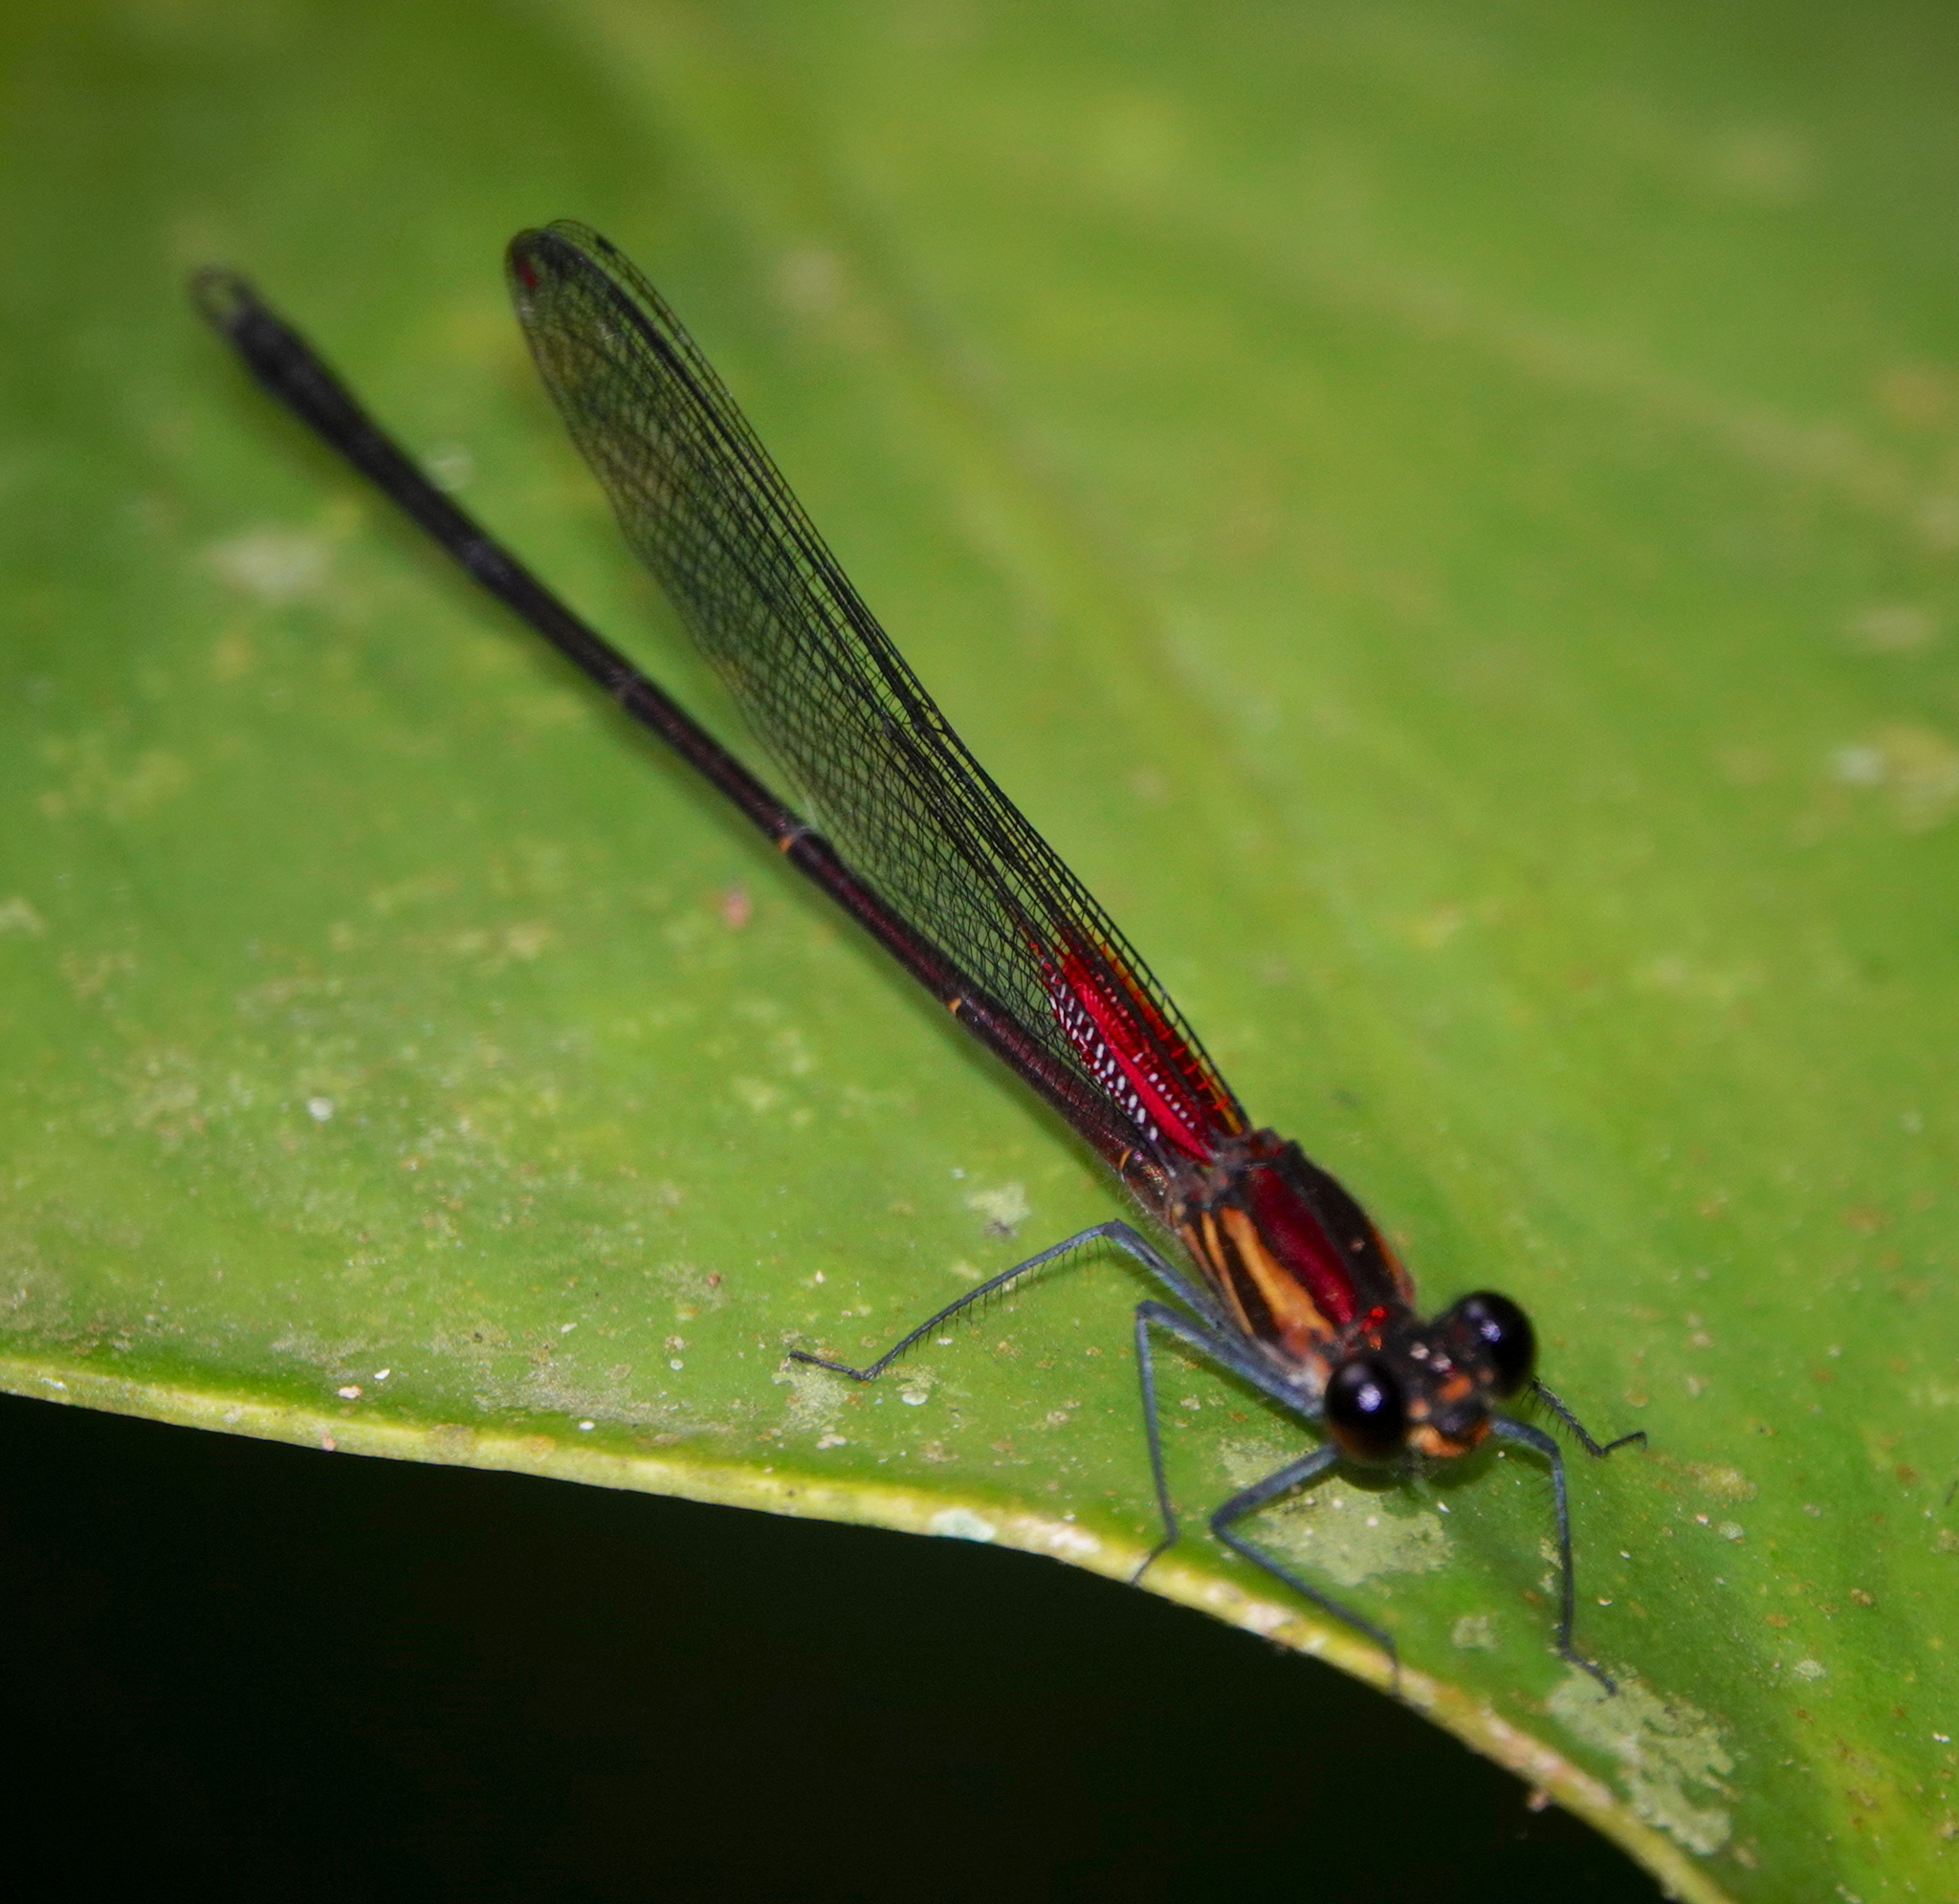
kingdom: Animalia
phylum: Arthropoda
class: Insecta
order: Odonata
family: Calopterygidae
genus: Hetaerina
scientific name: Hetaerina occisa
